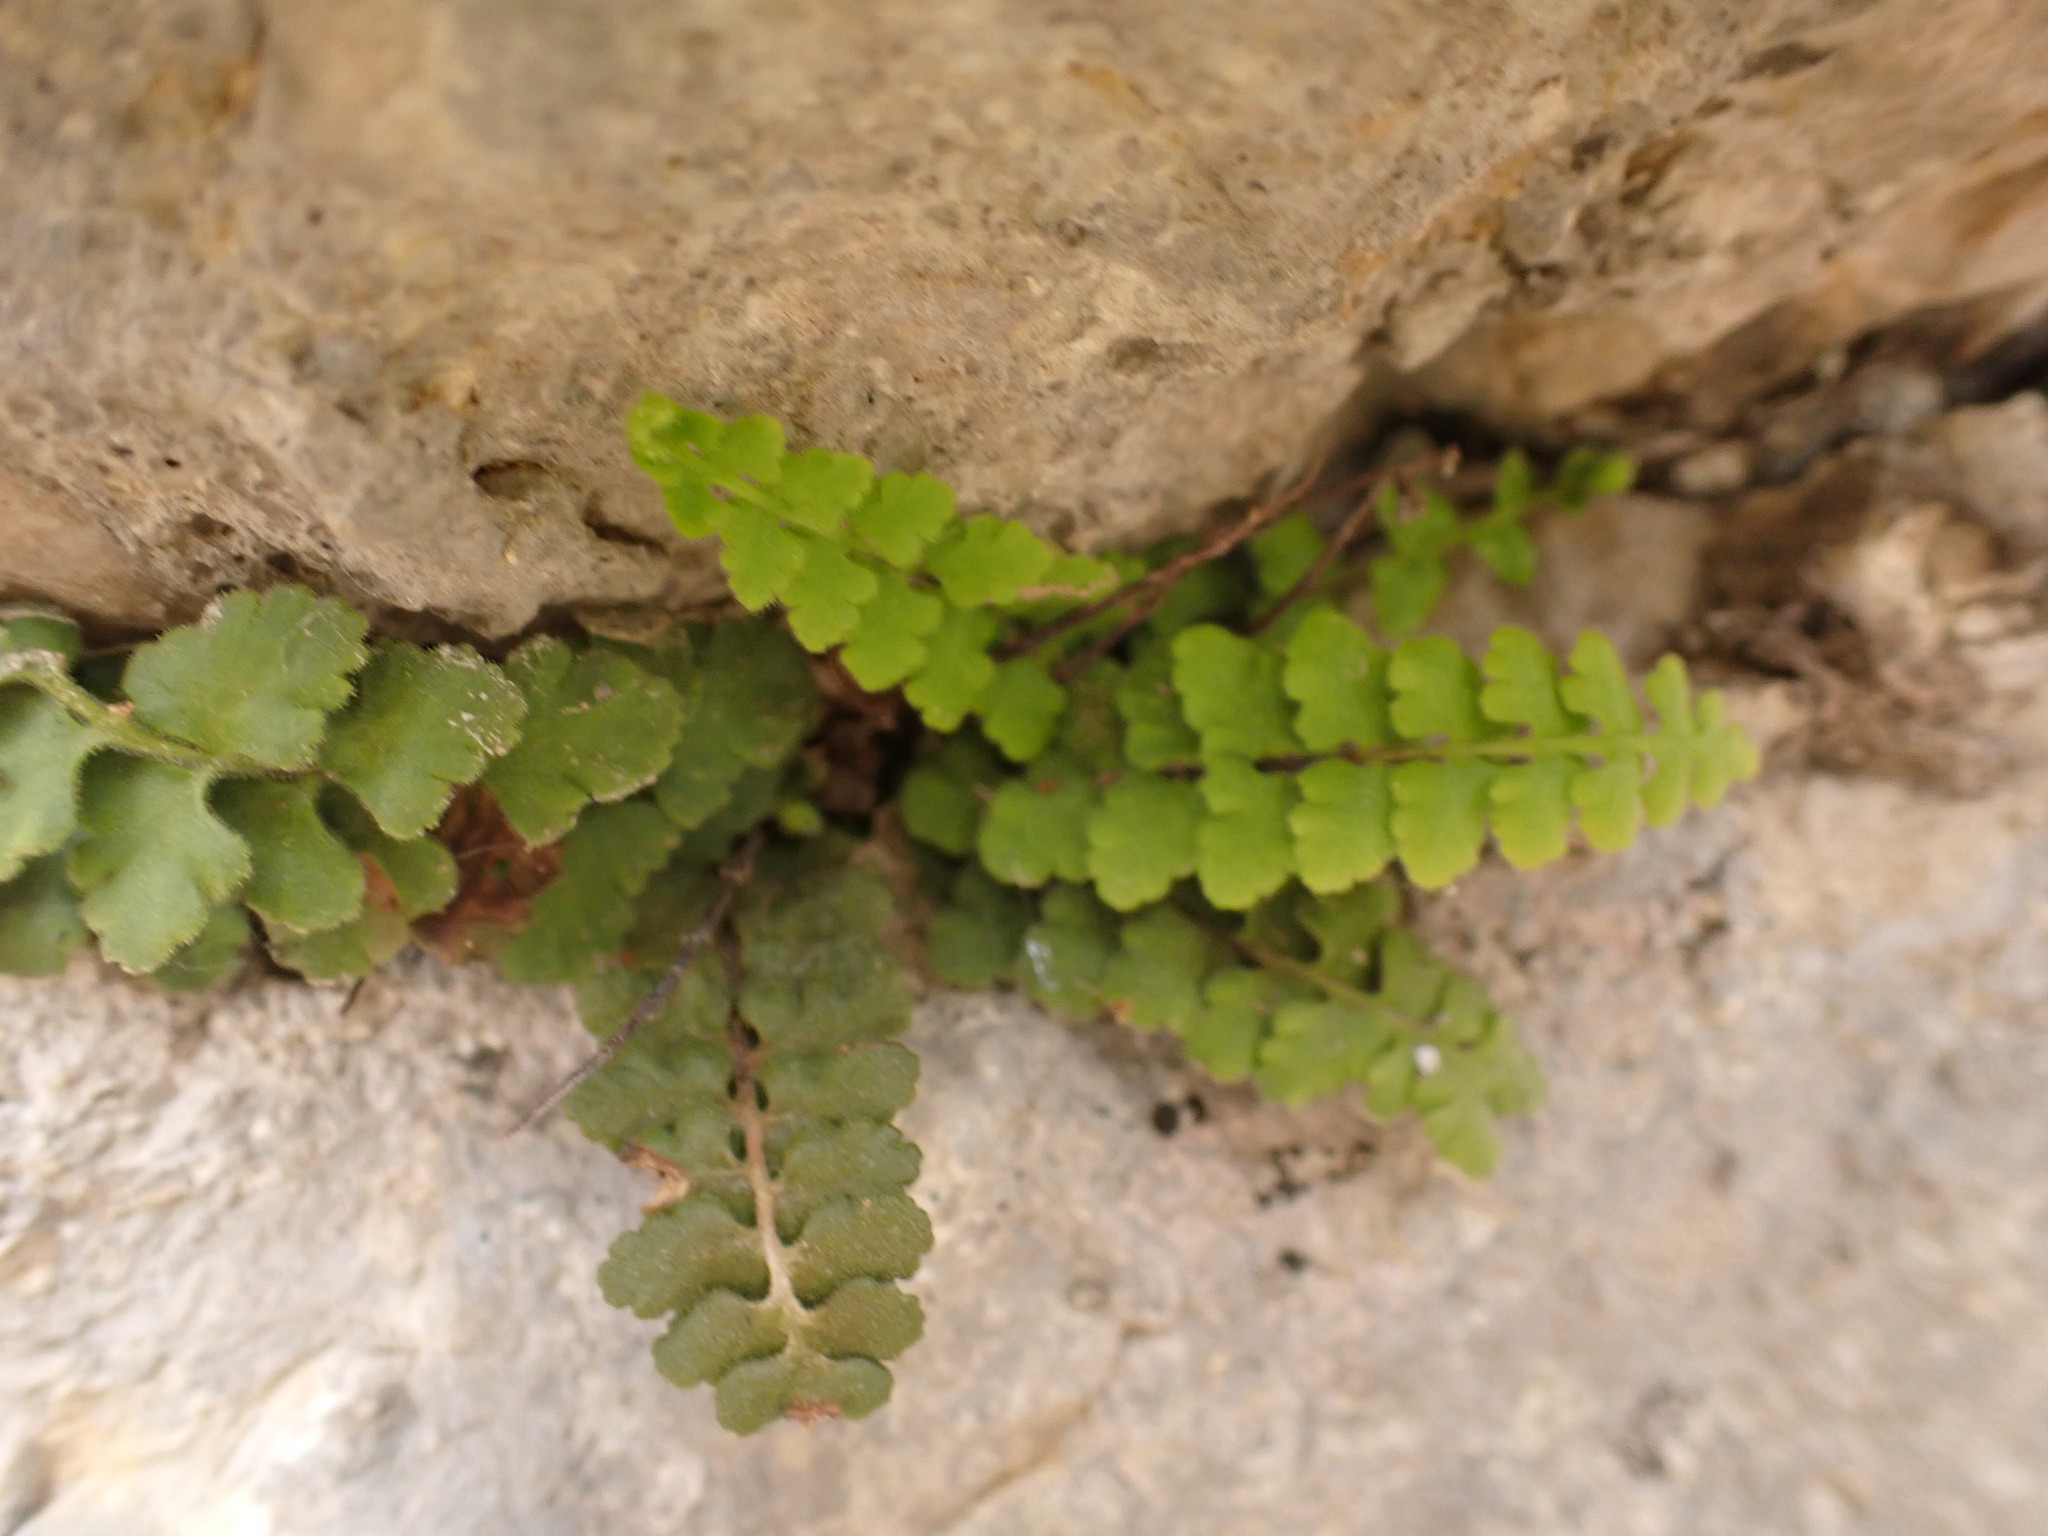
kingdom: Plantae
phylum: Tracheophyta
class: Polypodiopsida
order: Polypodiales
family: Aspleniaceae
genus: Asplenium
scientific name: Asplenium petrarchae
